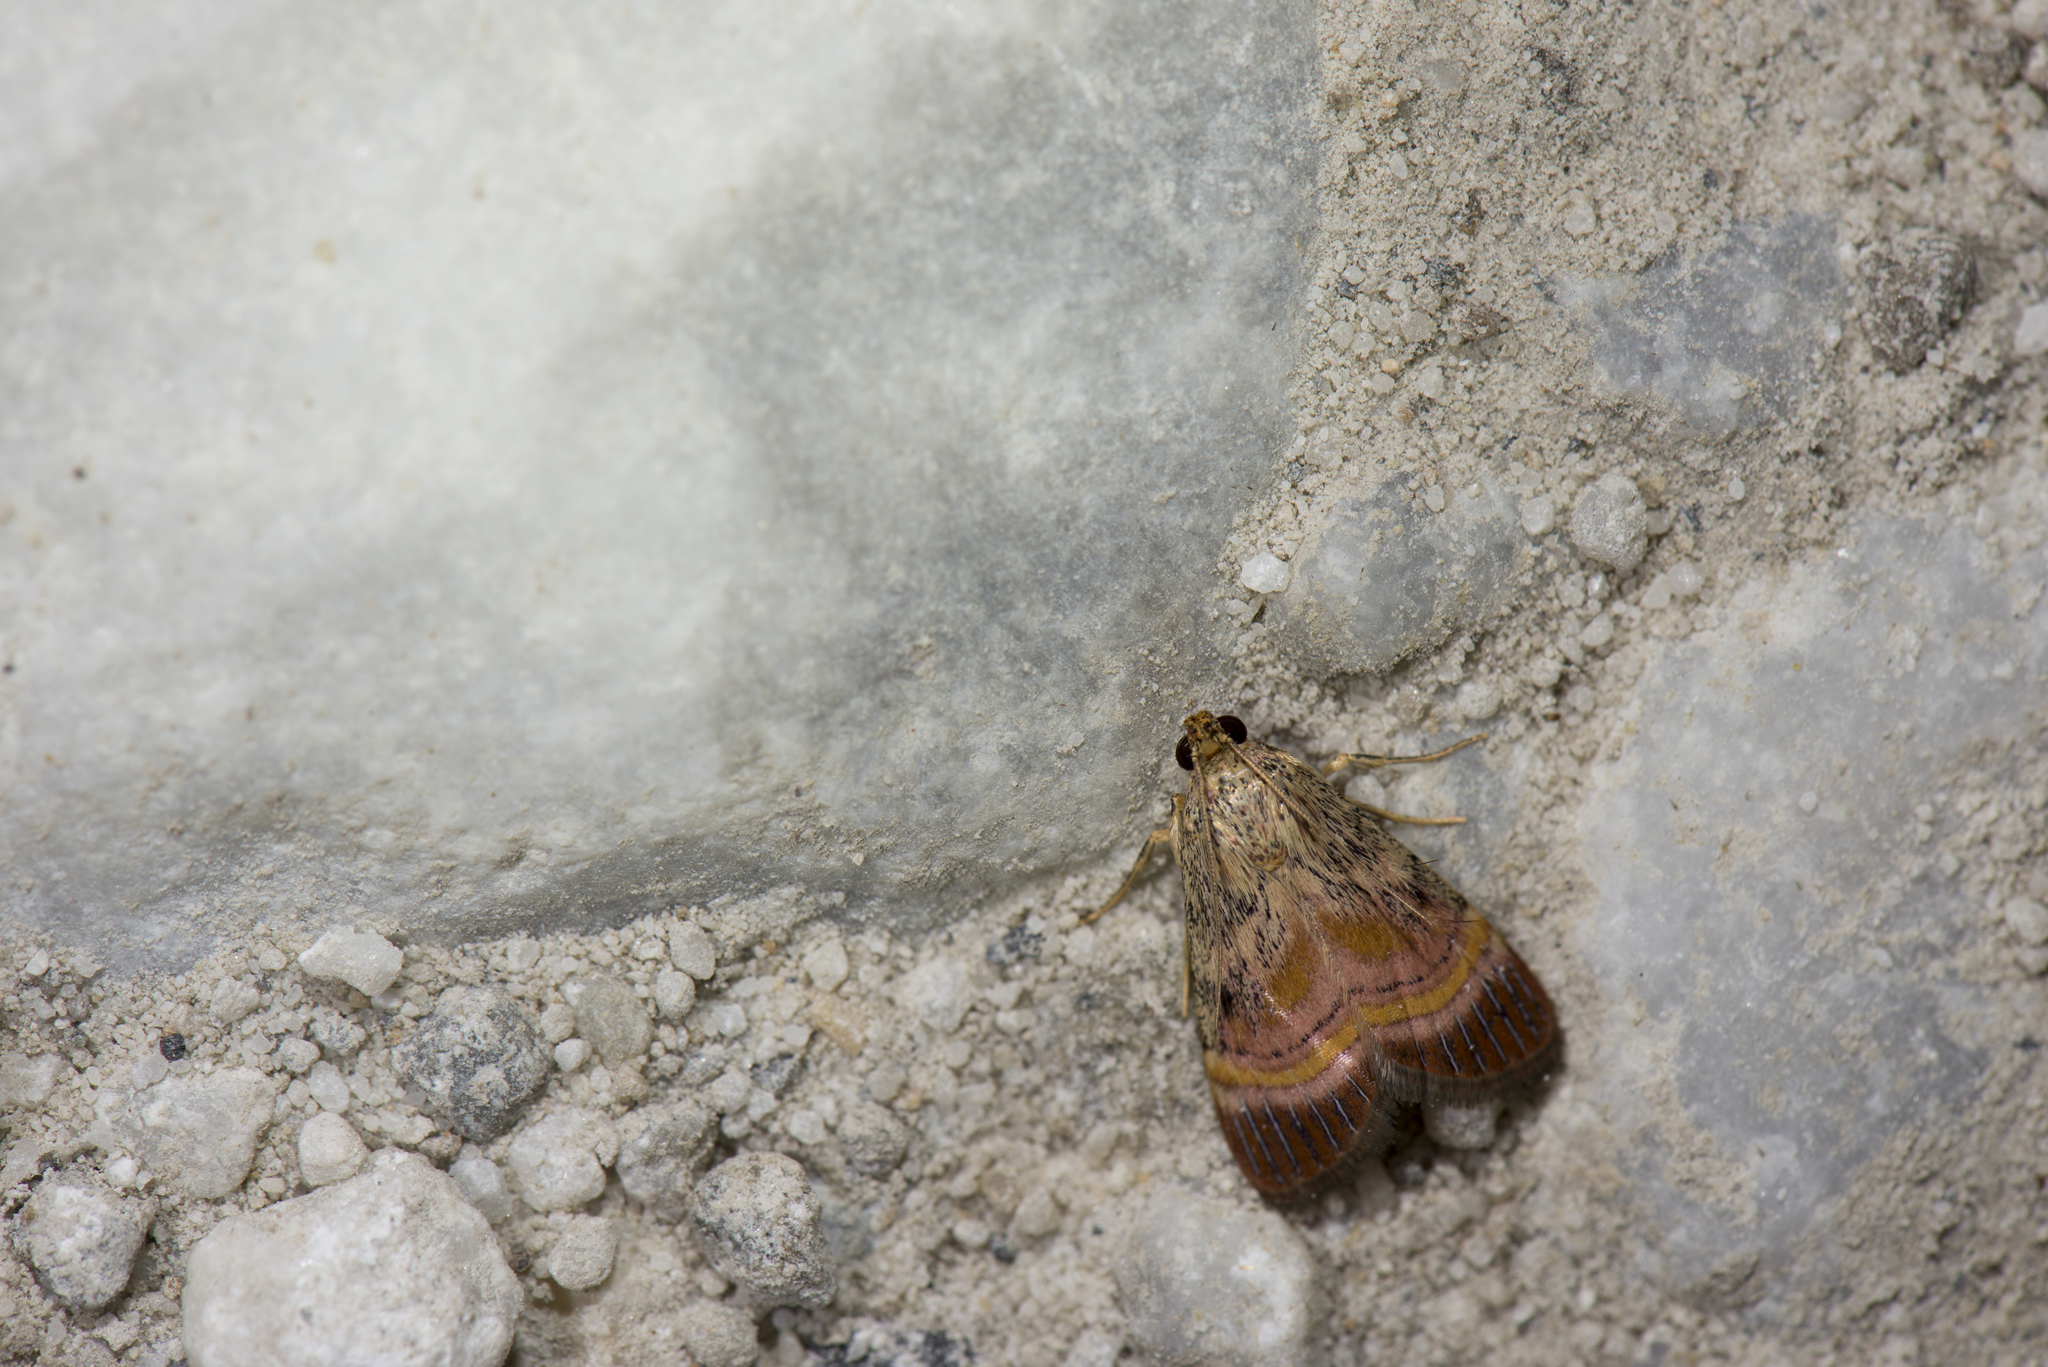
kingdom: Animalia
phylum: Arthropoda
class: Insecta
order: Lepidoptera
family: Pyralidae
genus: Lista
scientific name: Lista haraldusalis
